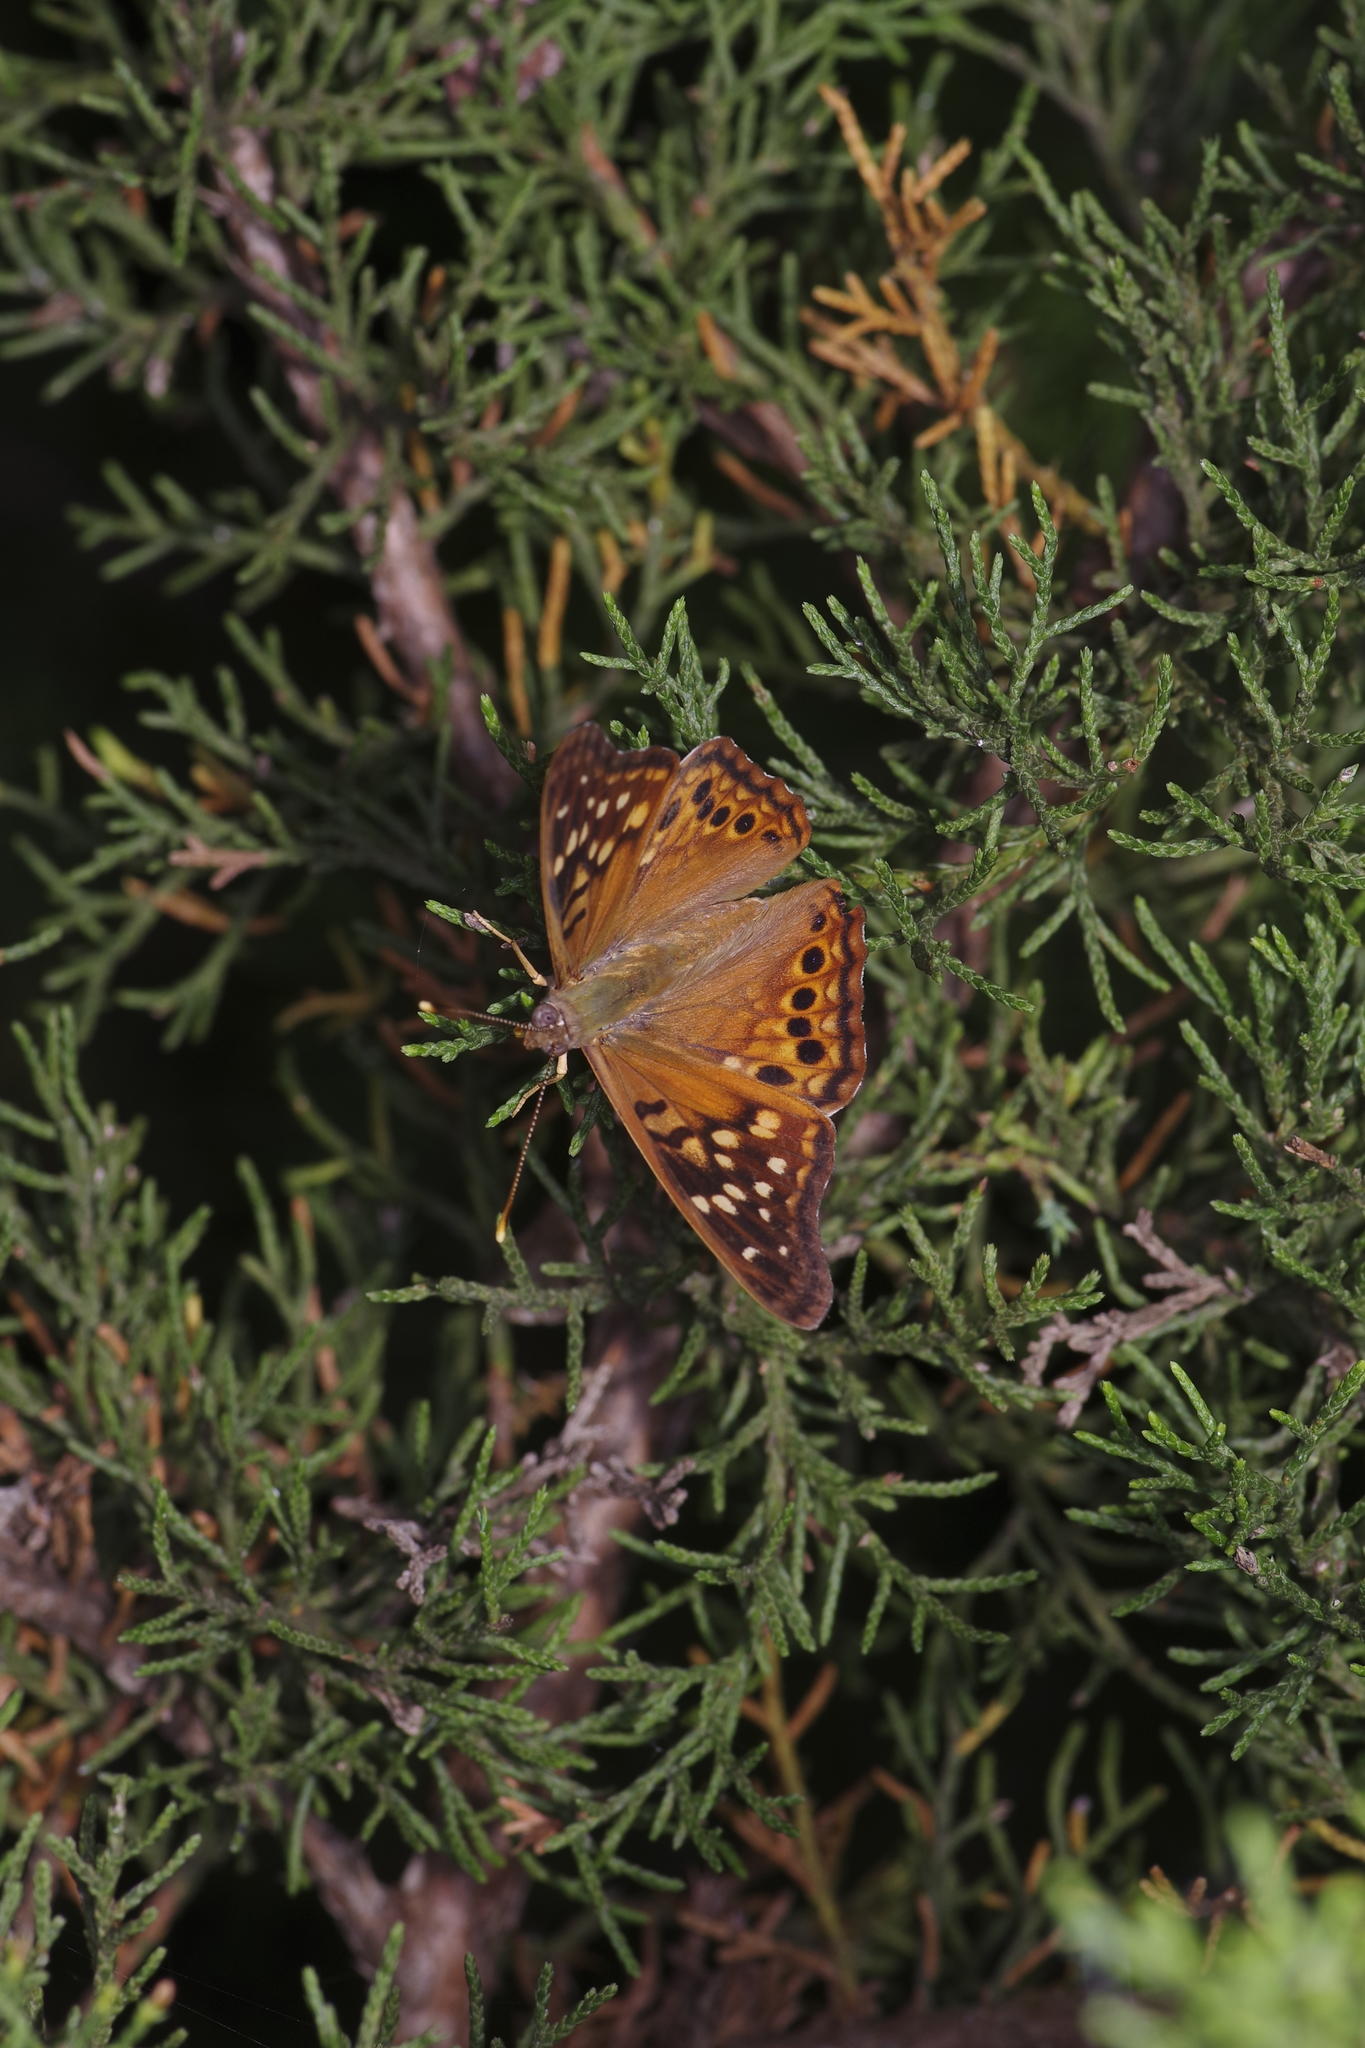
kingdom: Animalia
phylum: Arthropoda
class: Insecta
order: Lepidoptera
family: Nymphalidae
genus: Asterocampa
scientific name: Asterocampa clyton
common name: Tawny emperor
